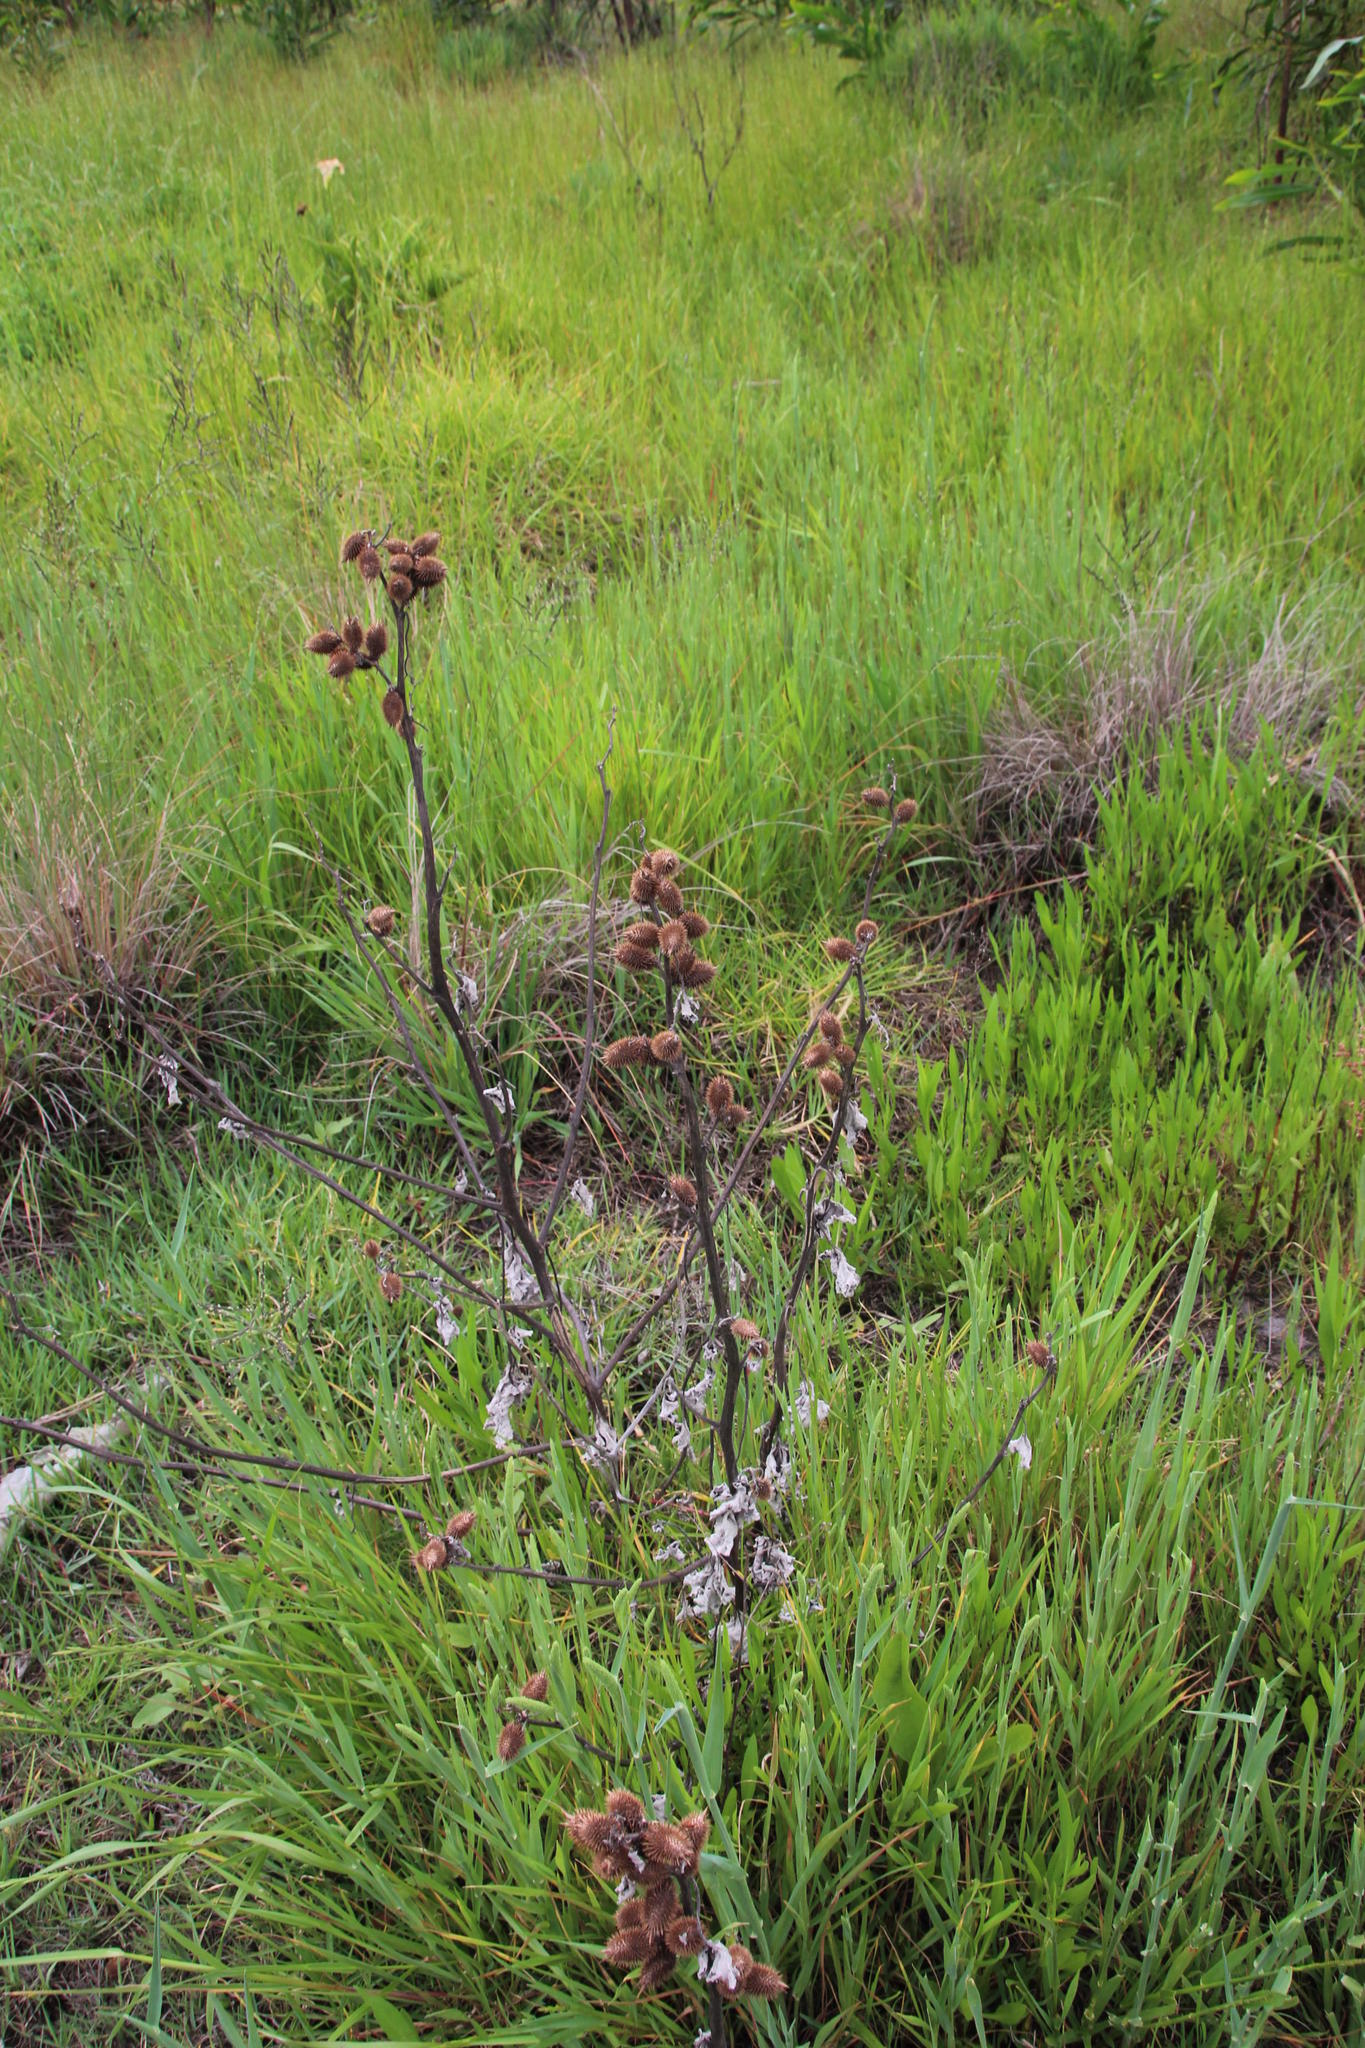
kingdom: Plantae
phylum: Tracheophyta
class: Magnoliopsida
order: Asterales
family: Asteraceae
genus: Xanthium
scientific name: Xanthium strumarium
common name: Rough cocklebur
